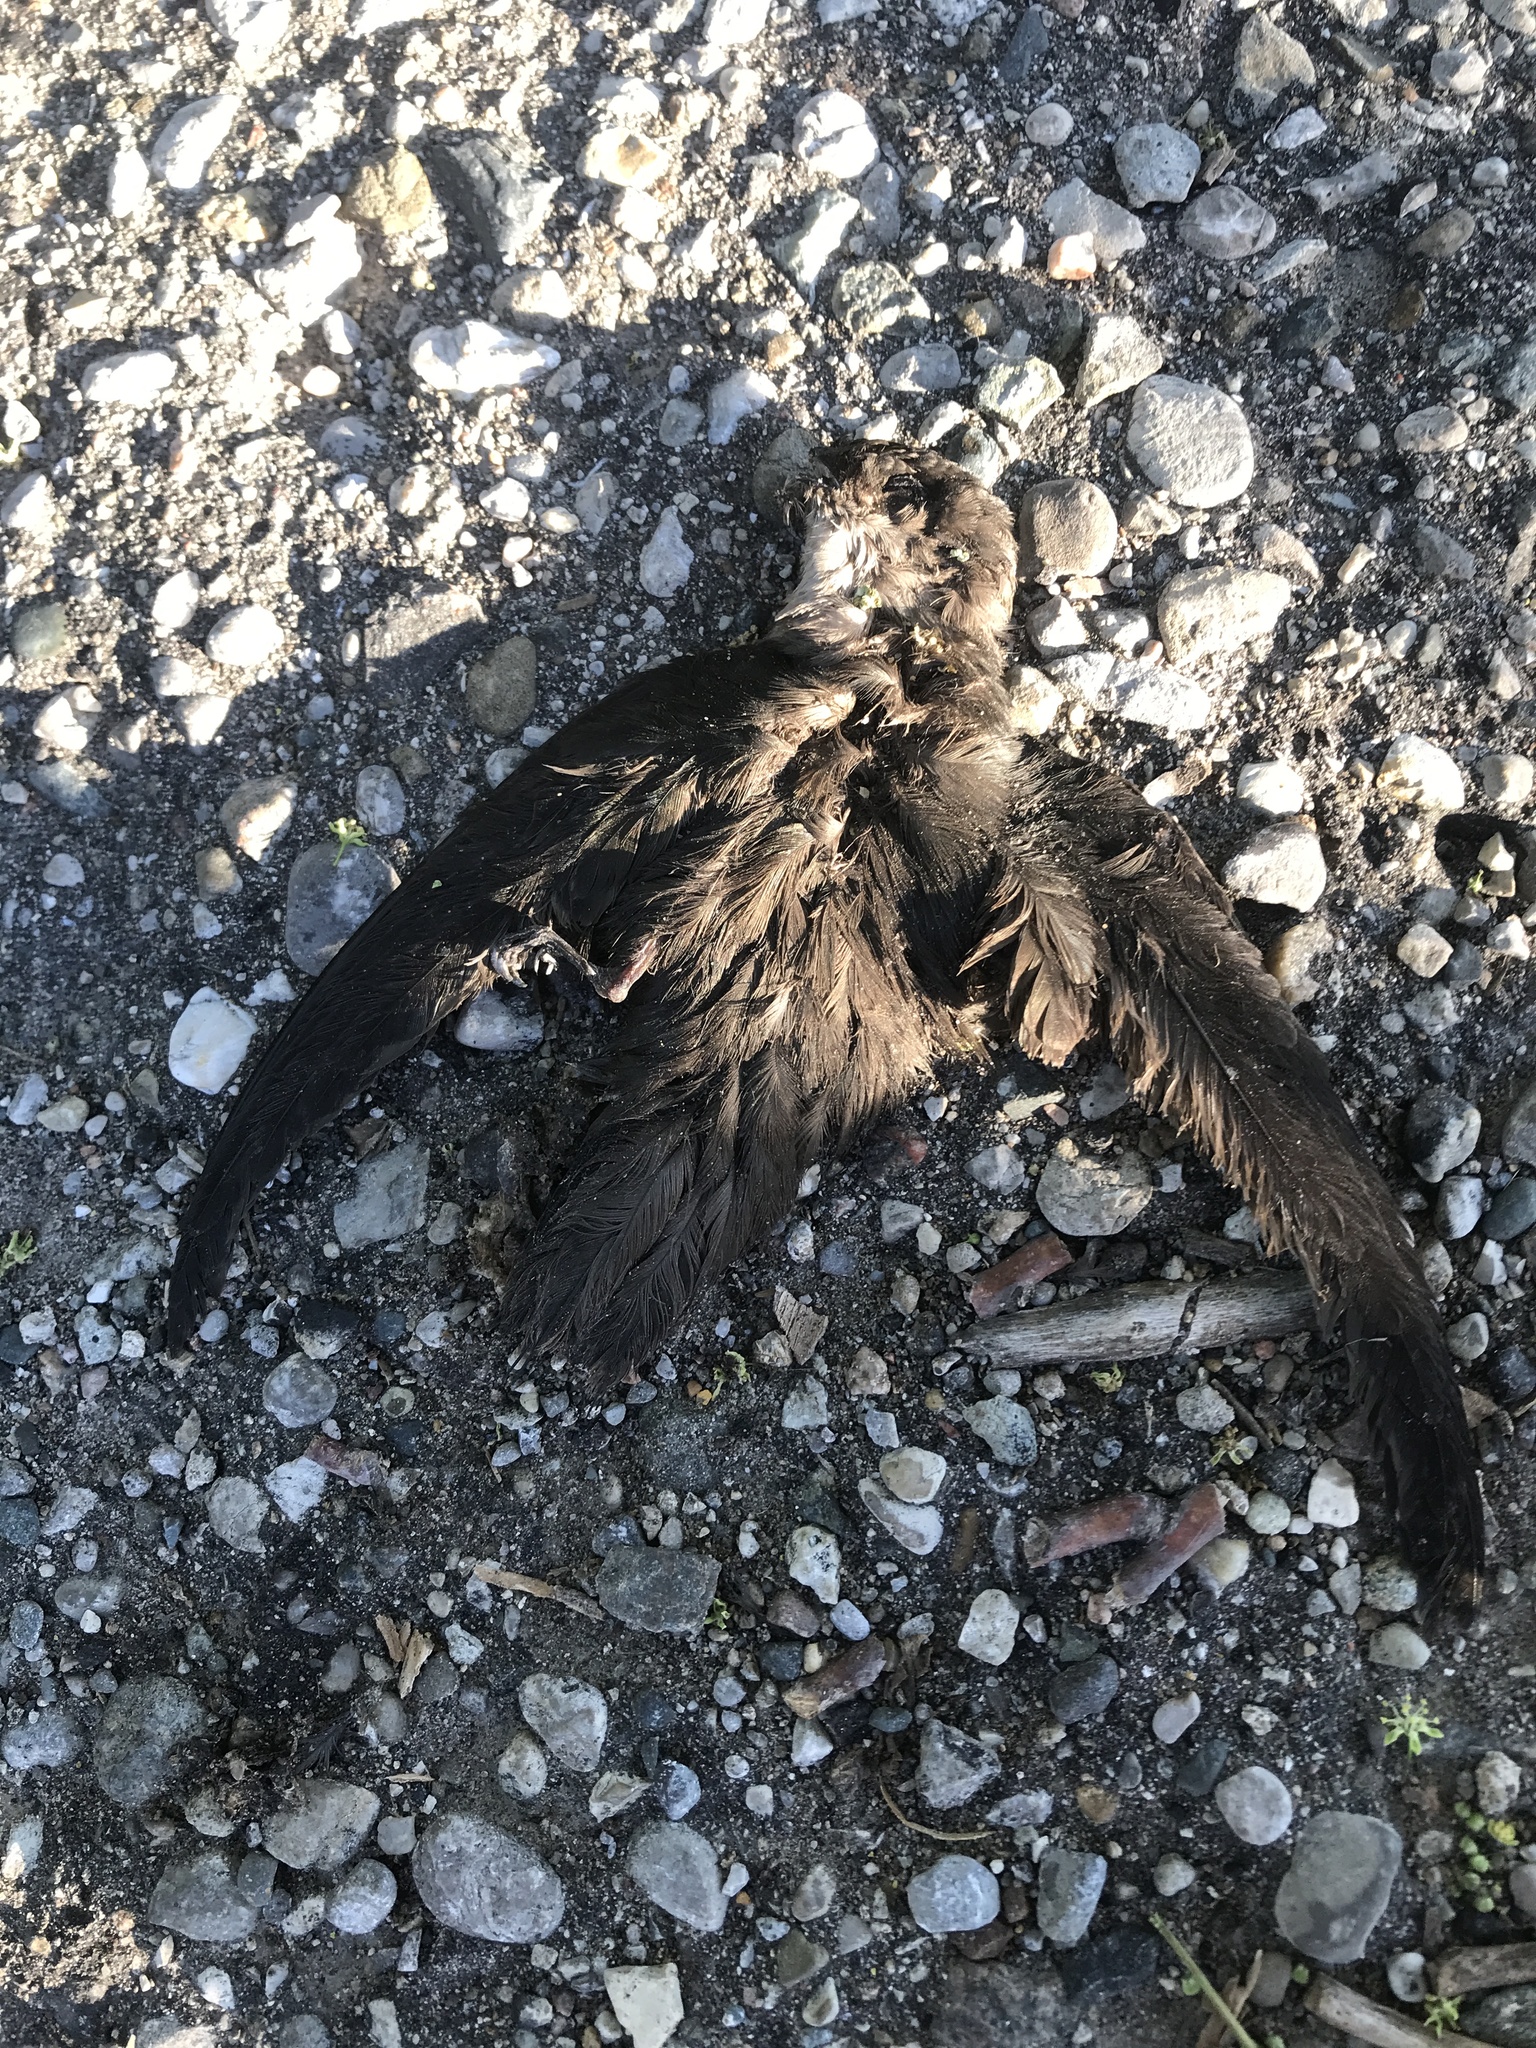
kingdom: Animalia
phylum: Chordata
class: Aves
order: Passeriformes
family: Hirundinidae
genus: Stelgidopteryx
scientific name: Stelgidopteryx serripennis
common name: Northern rough-winged swallow
